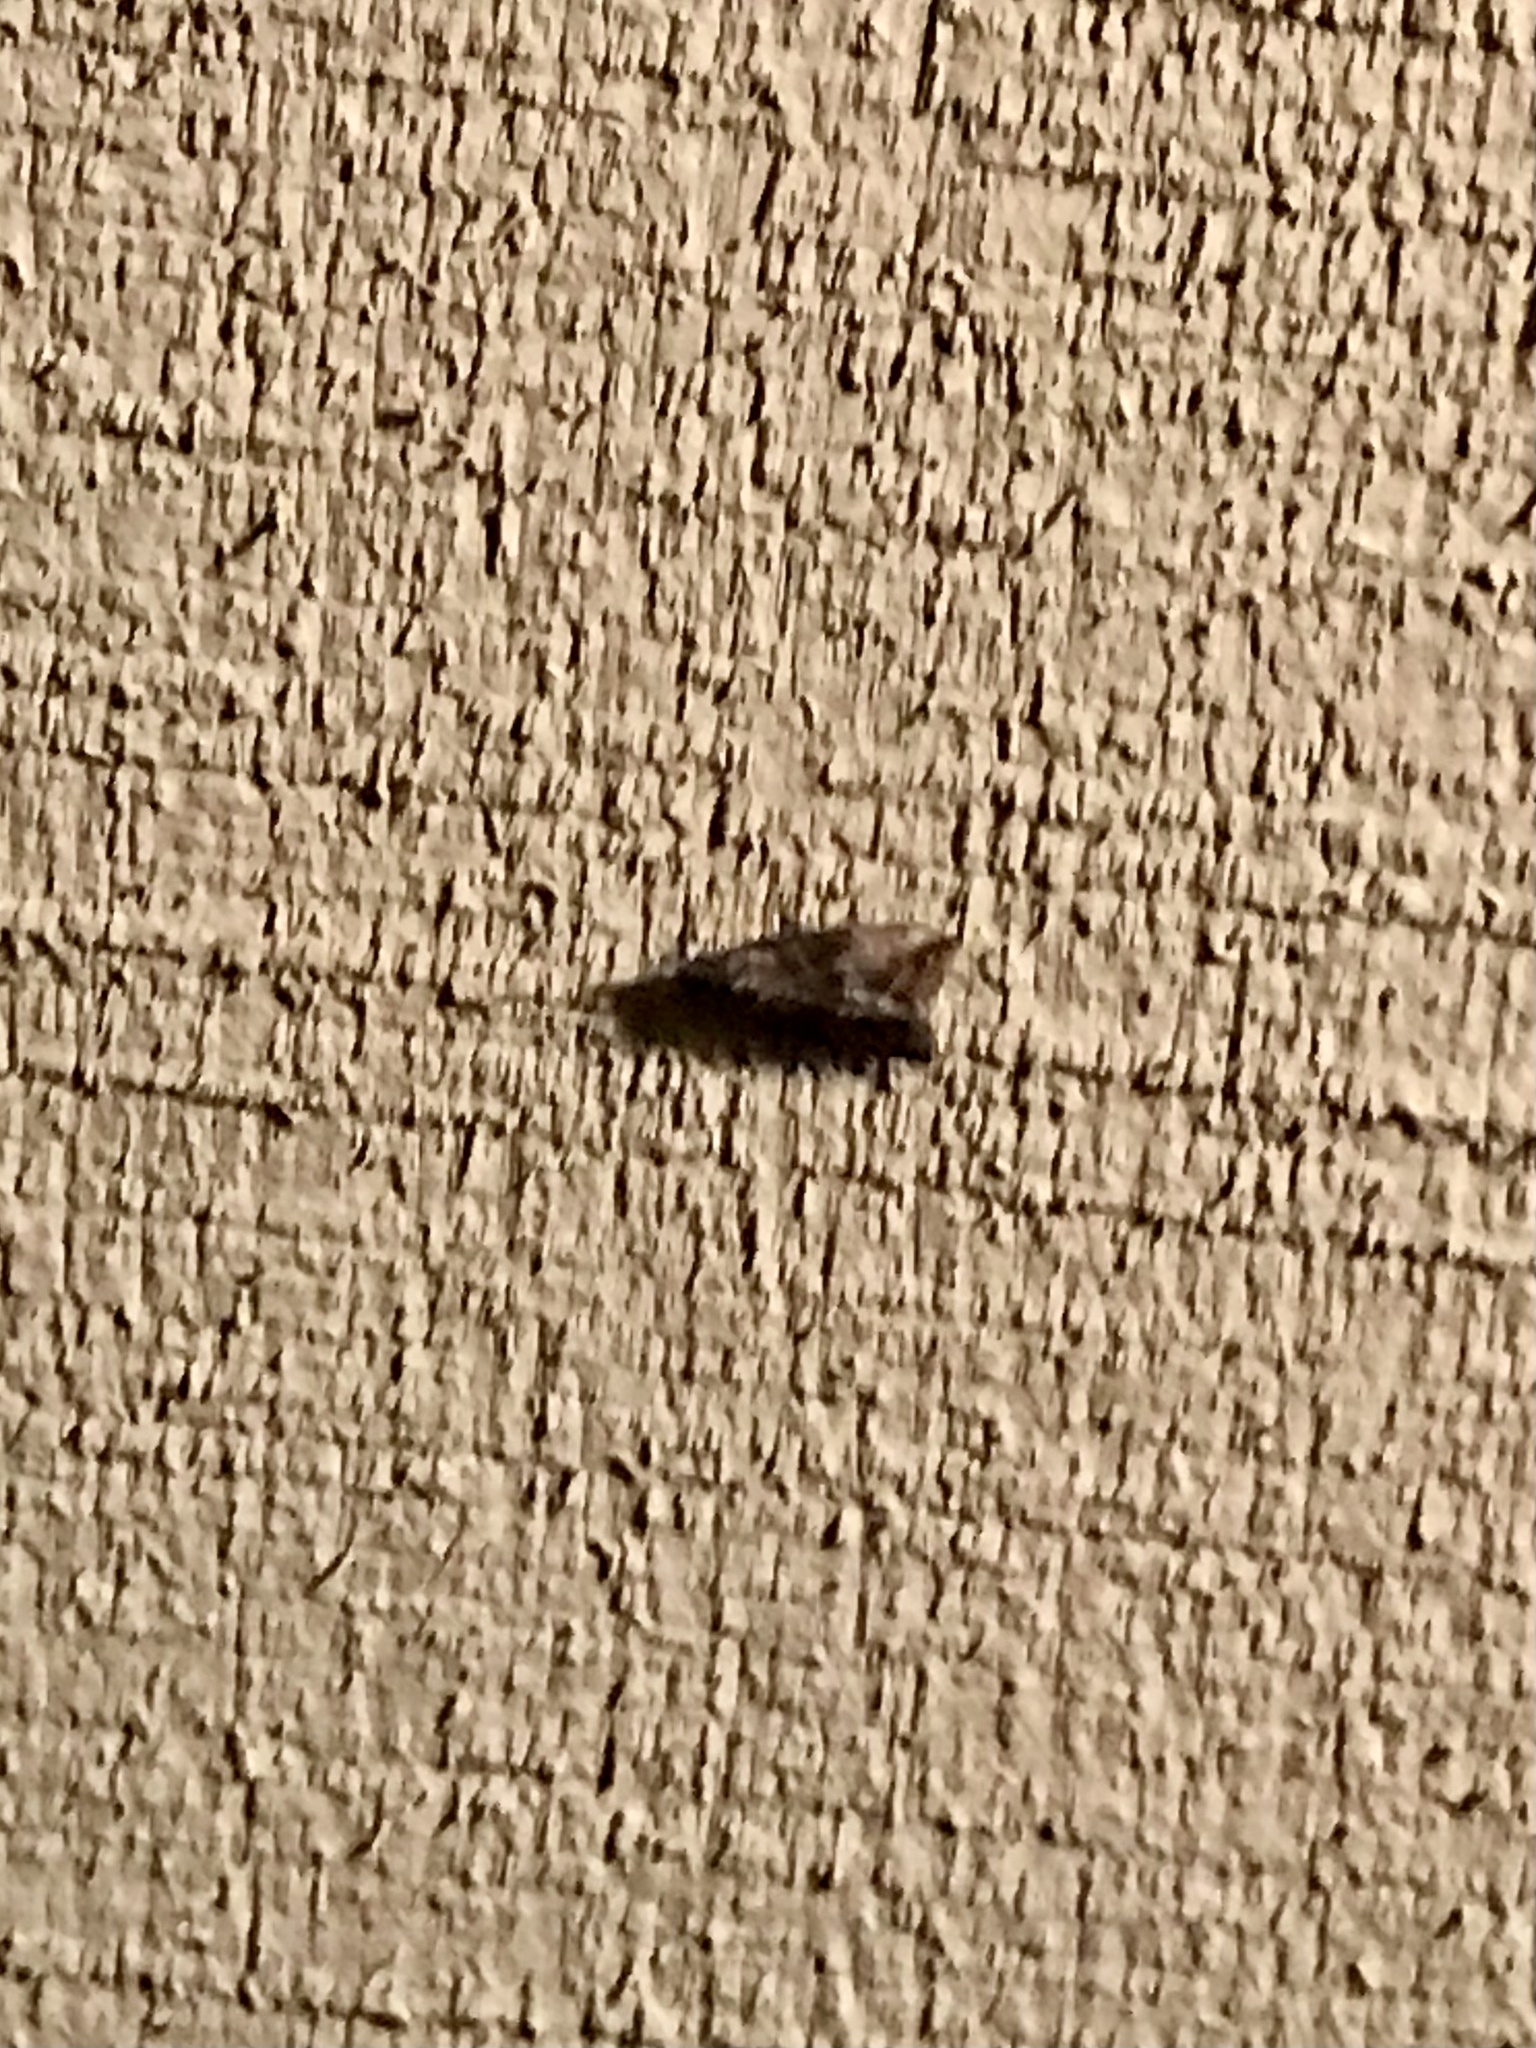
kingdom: Animalia
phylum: Arthropoda
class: Insecta
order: Lepidoptera
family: Erebidae
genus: Hypena
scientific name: Hypena scabra
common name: Green cloverworm
